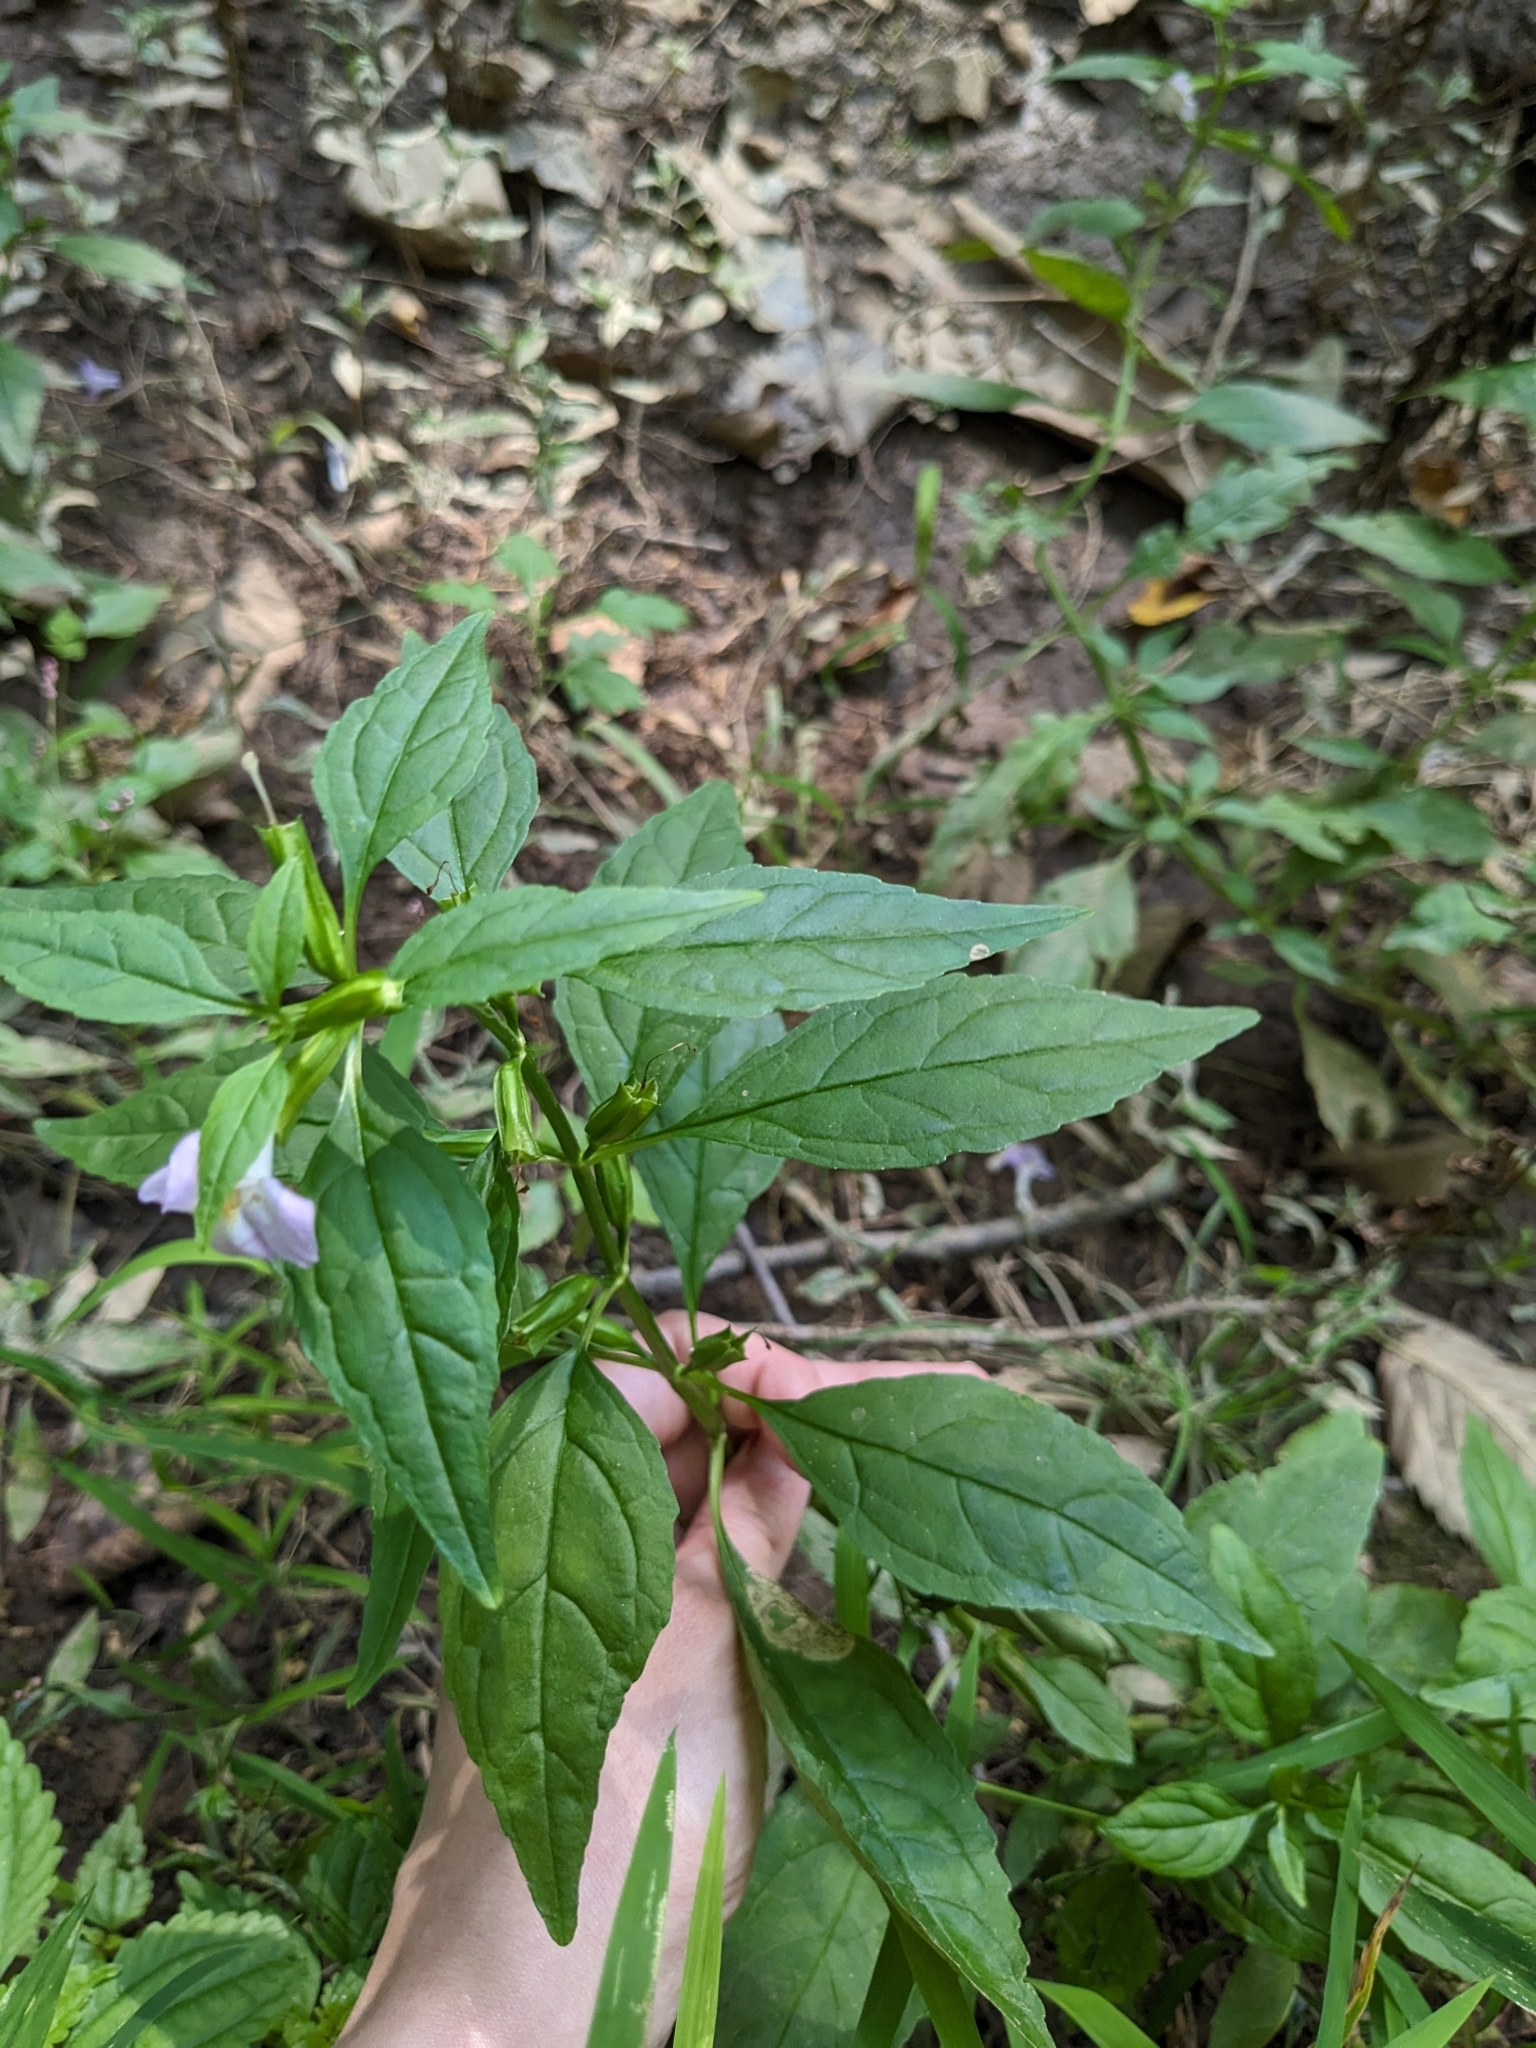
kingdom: Plantae
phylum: Tracheophyta
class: Magnoliopsida
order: Lamiales
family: Phrymaceae
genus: Mimulus
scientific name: Mimulus alatus
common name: Sharp-wing monkey-flower
